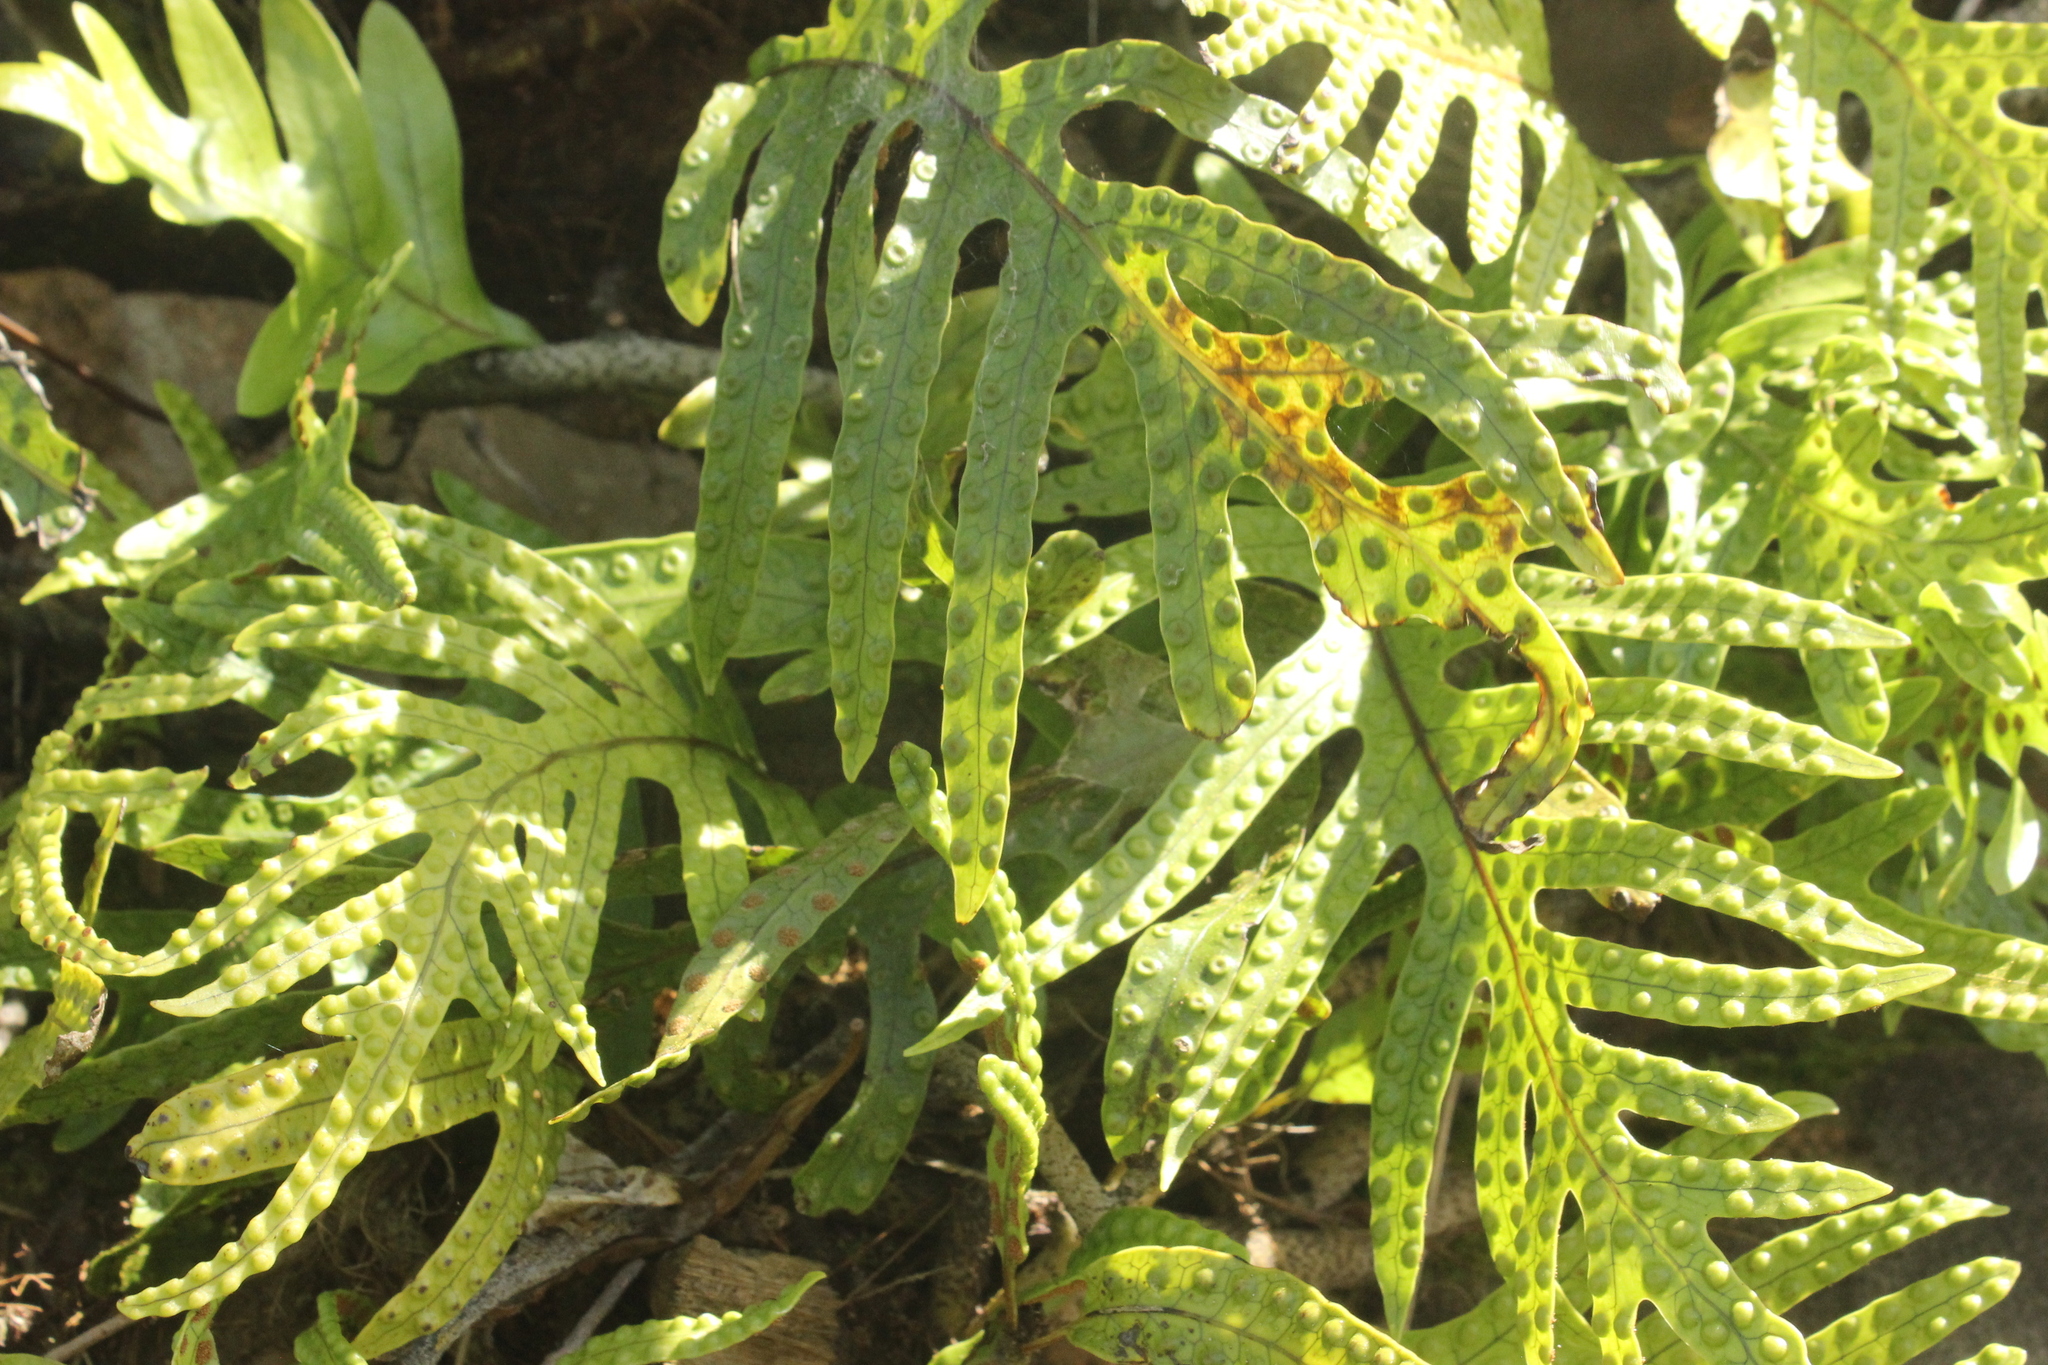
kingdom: Plantae
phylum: Tracheophyta
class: Polypodiopsida
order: Polypodiales
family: Polypodiaceae
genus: Lecanopteris
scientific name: Lecanopteris pustulata
